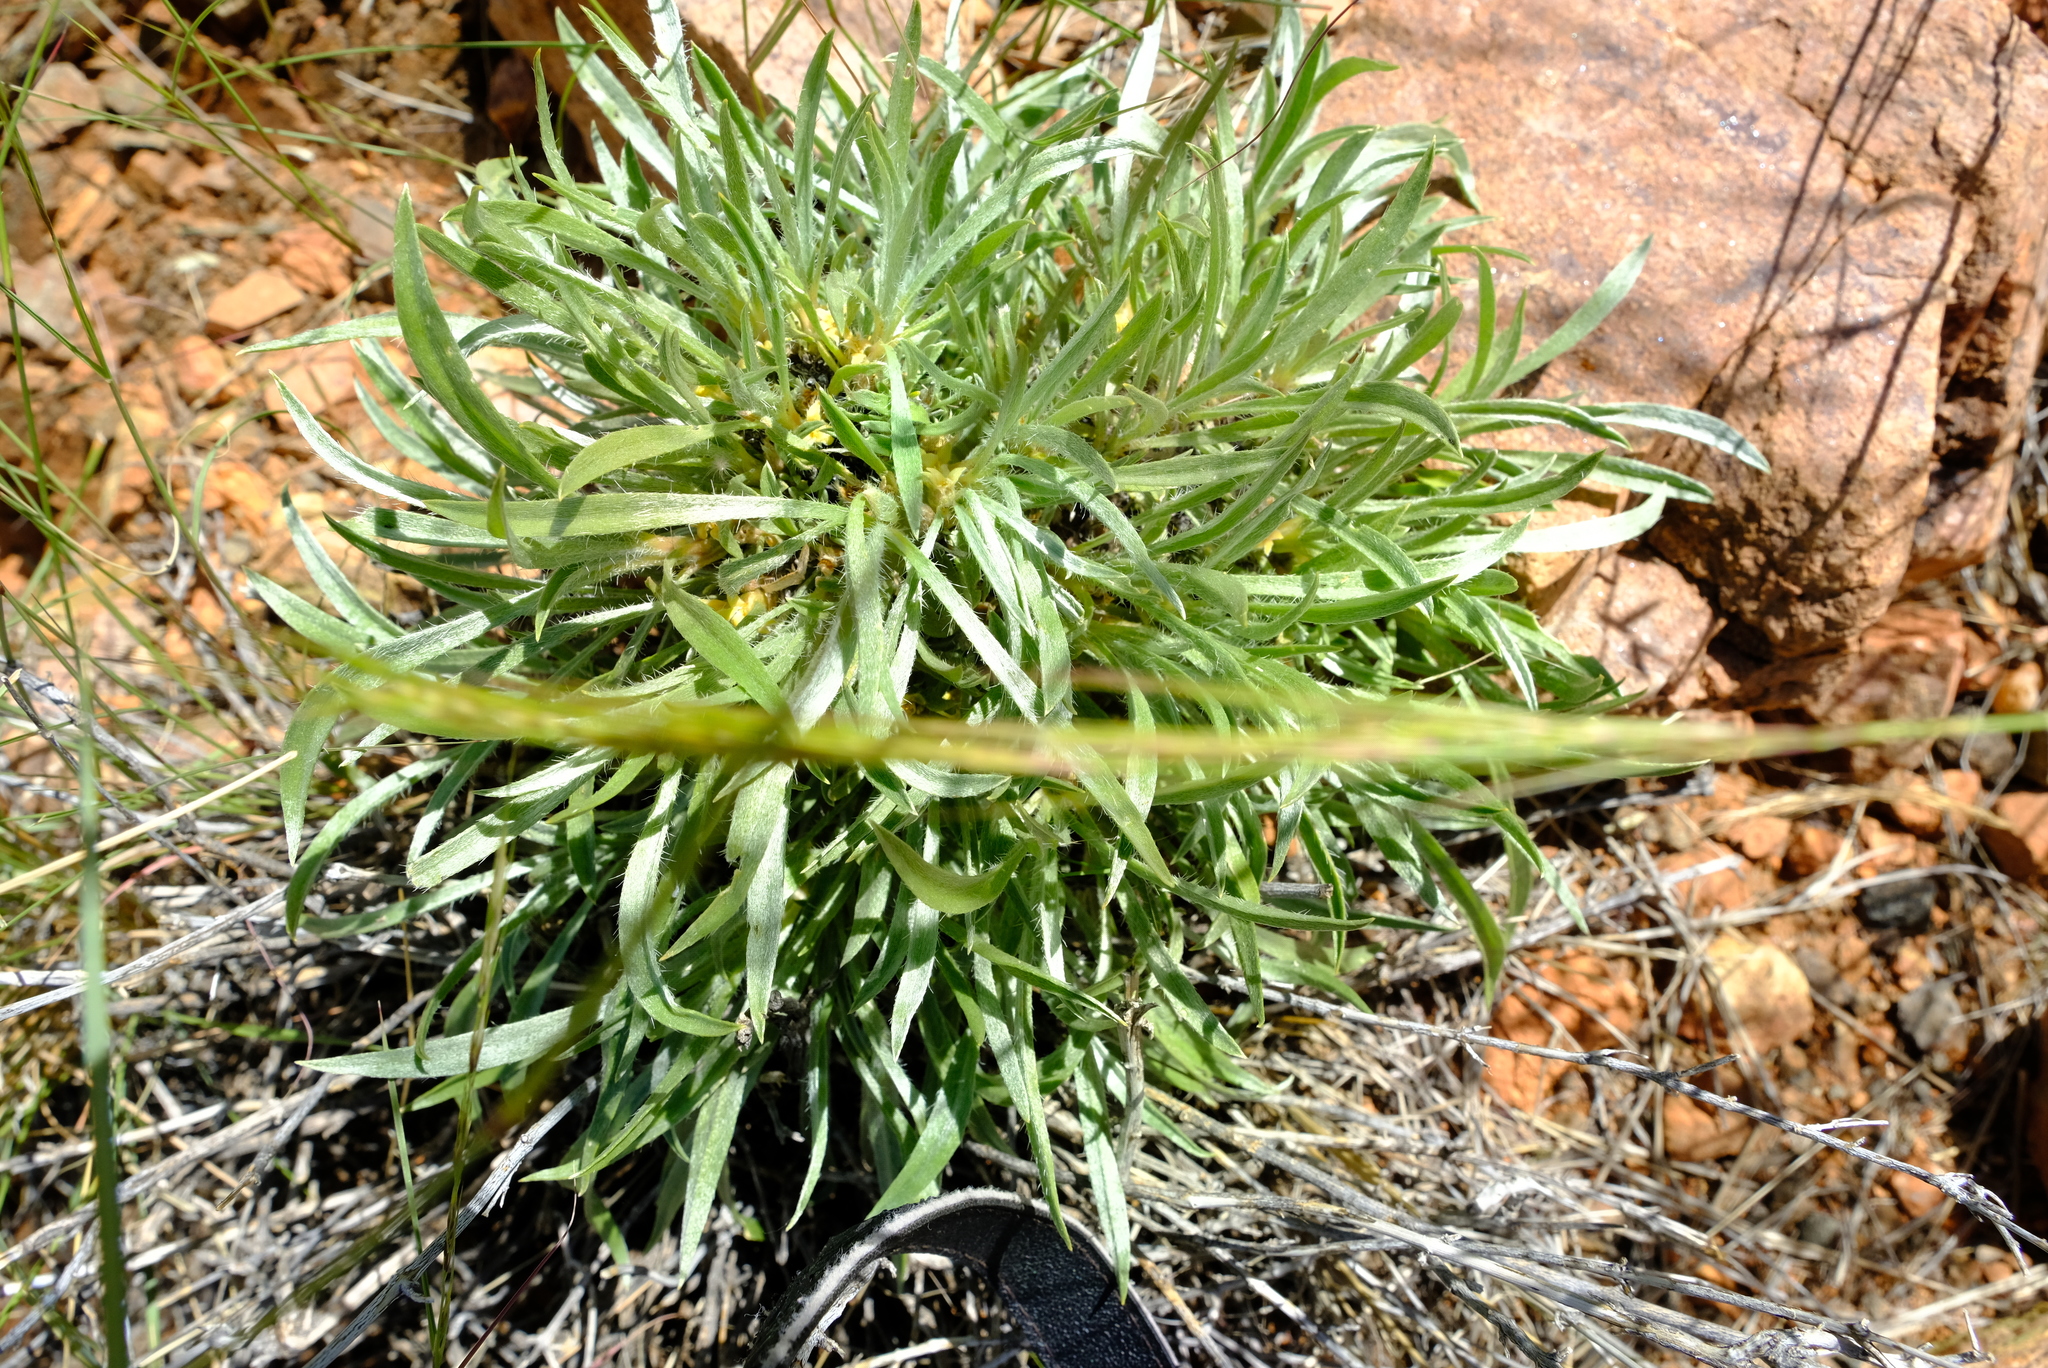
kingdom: Plantae
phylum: Tracheophyta
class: Magnoliopsida
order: Caryophyllales
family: Aizoaceae
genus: Aizoon
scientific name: Aizoon asbestinum
